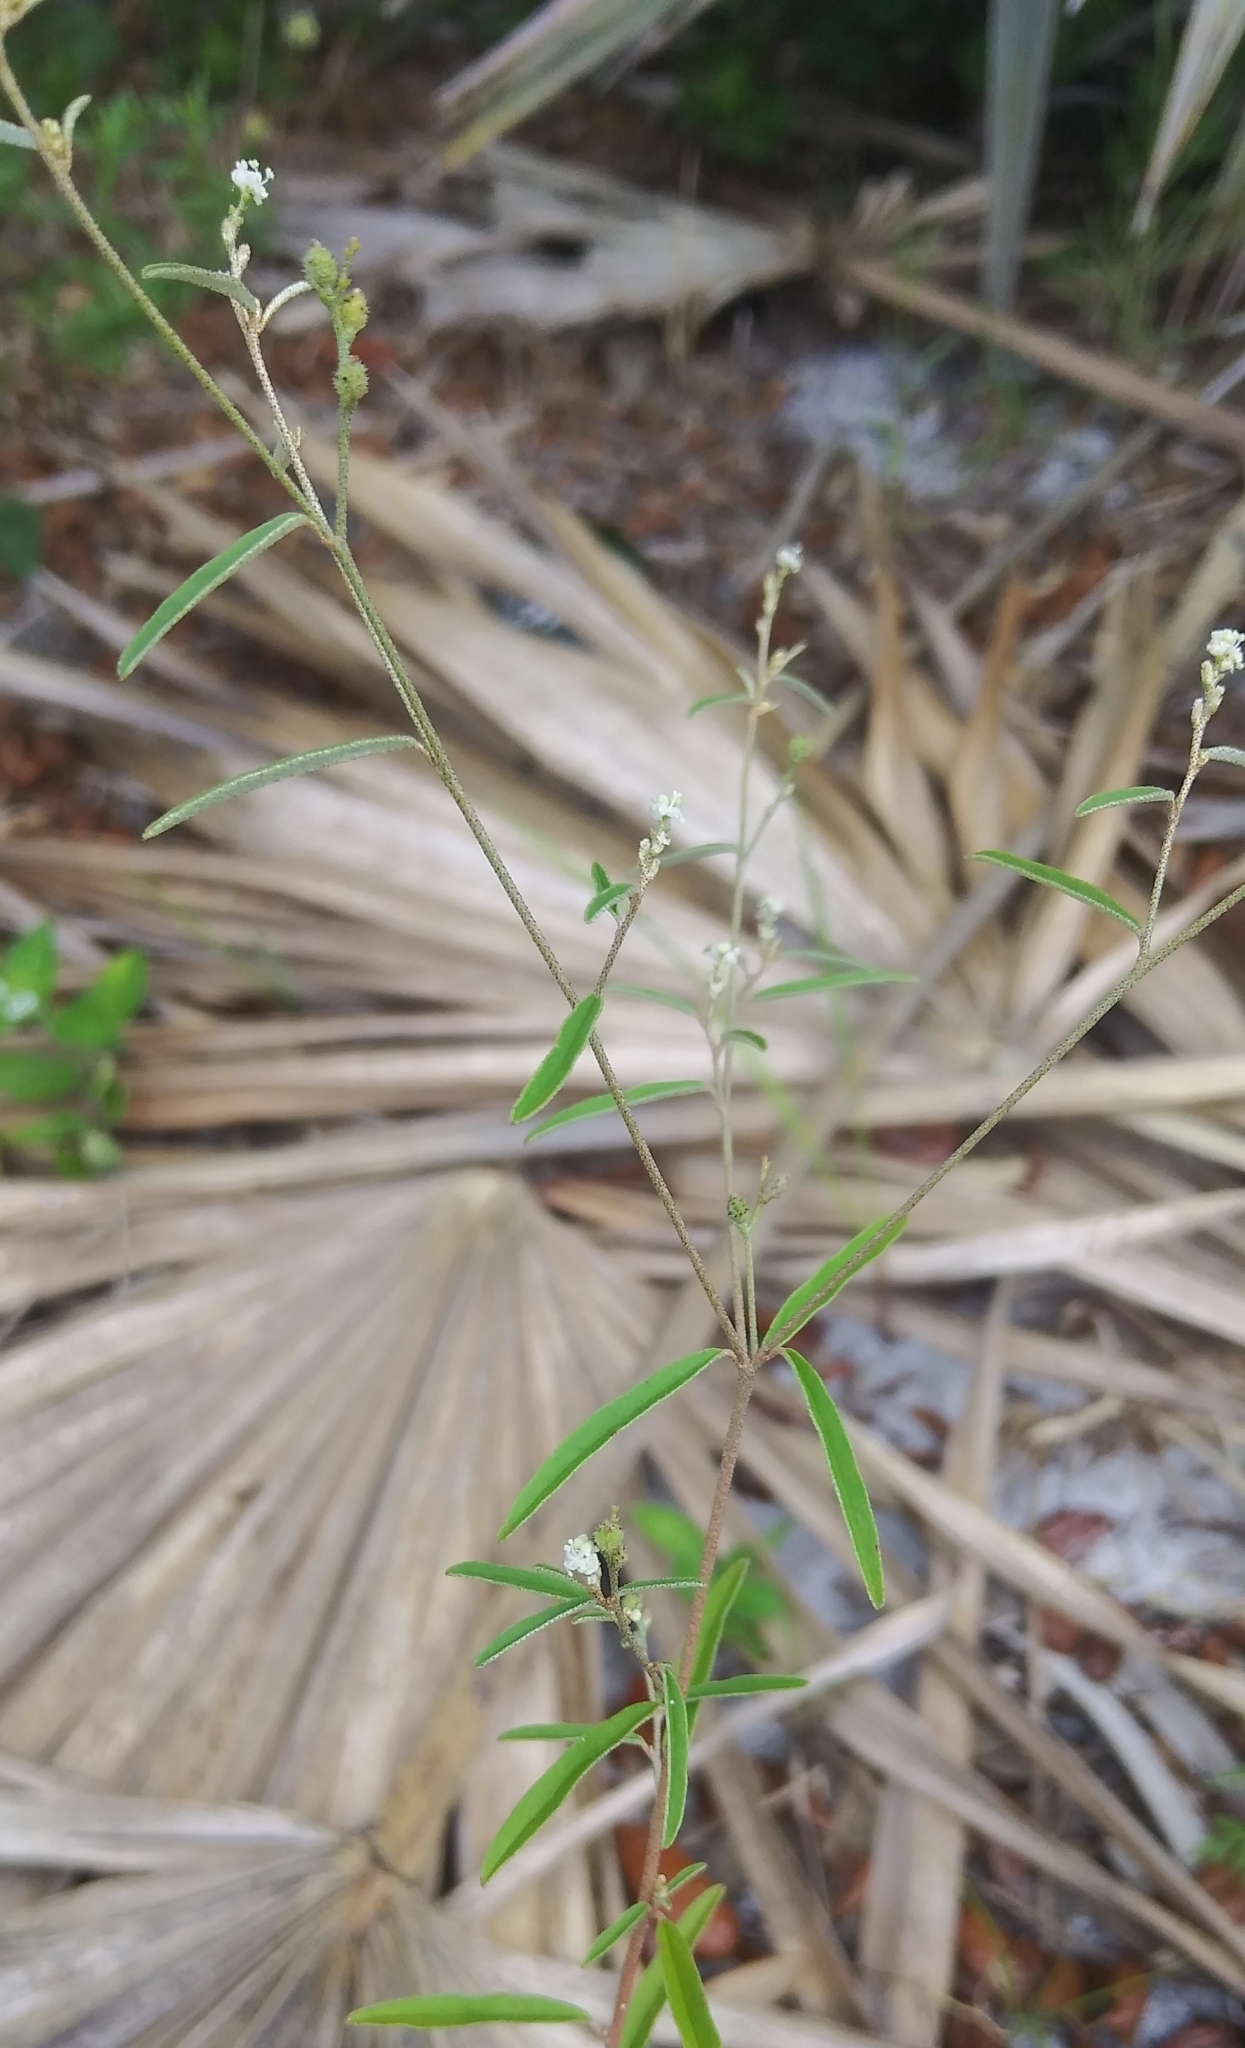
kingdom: Plantae
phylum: Tracheophyta
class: Magnoliopsida
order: Malpighiales
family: Euphorbiaceae
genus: Croton
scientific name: Croton michauxii
